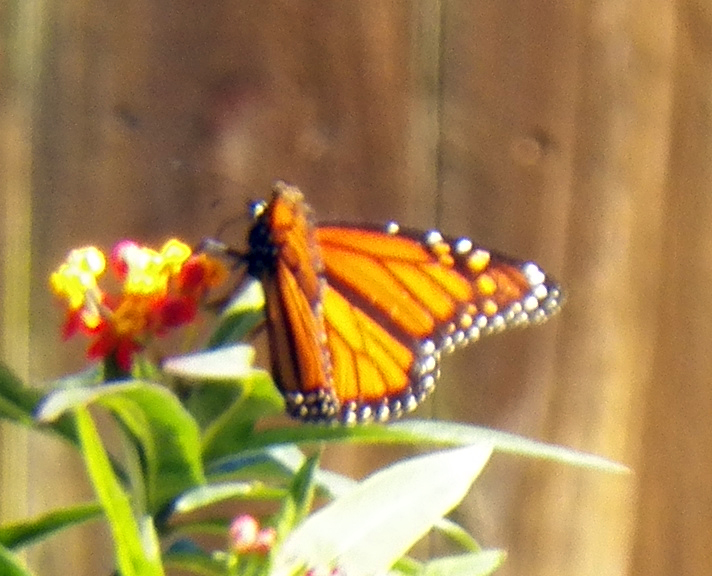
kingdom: Animalia
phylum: Arthropoda
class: Insecta
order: Lepidoptera
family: Nymphalidae
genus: Danaus
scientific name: Danaus plexippus
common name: Monarch
